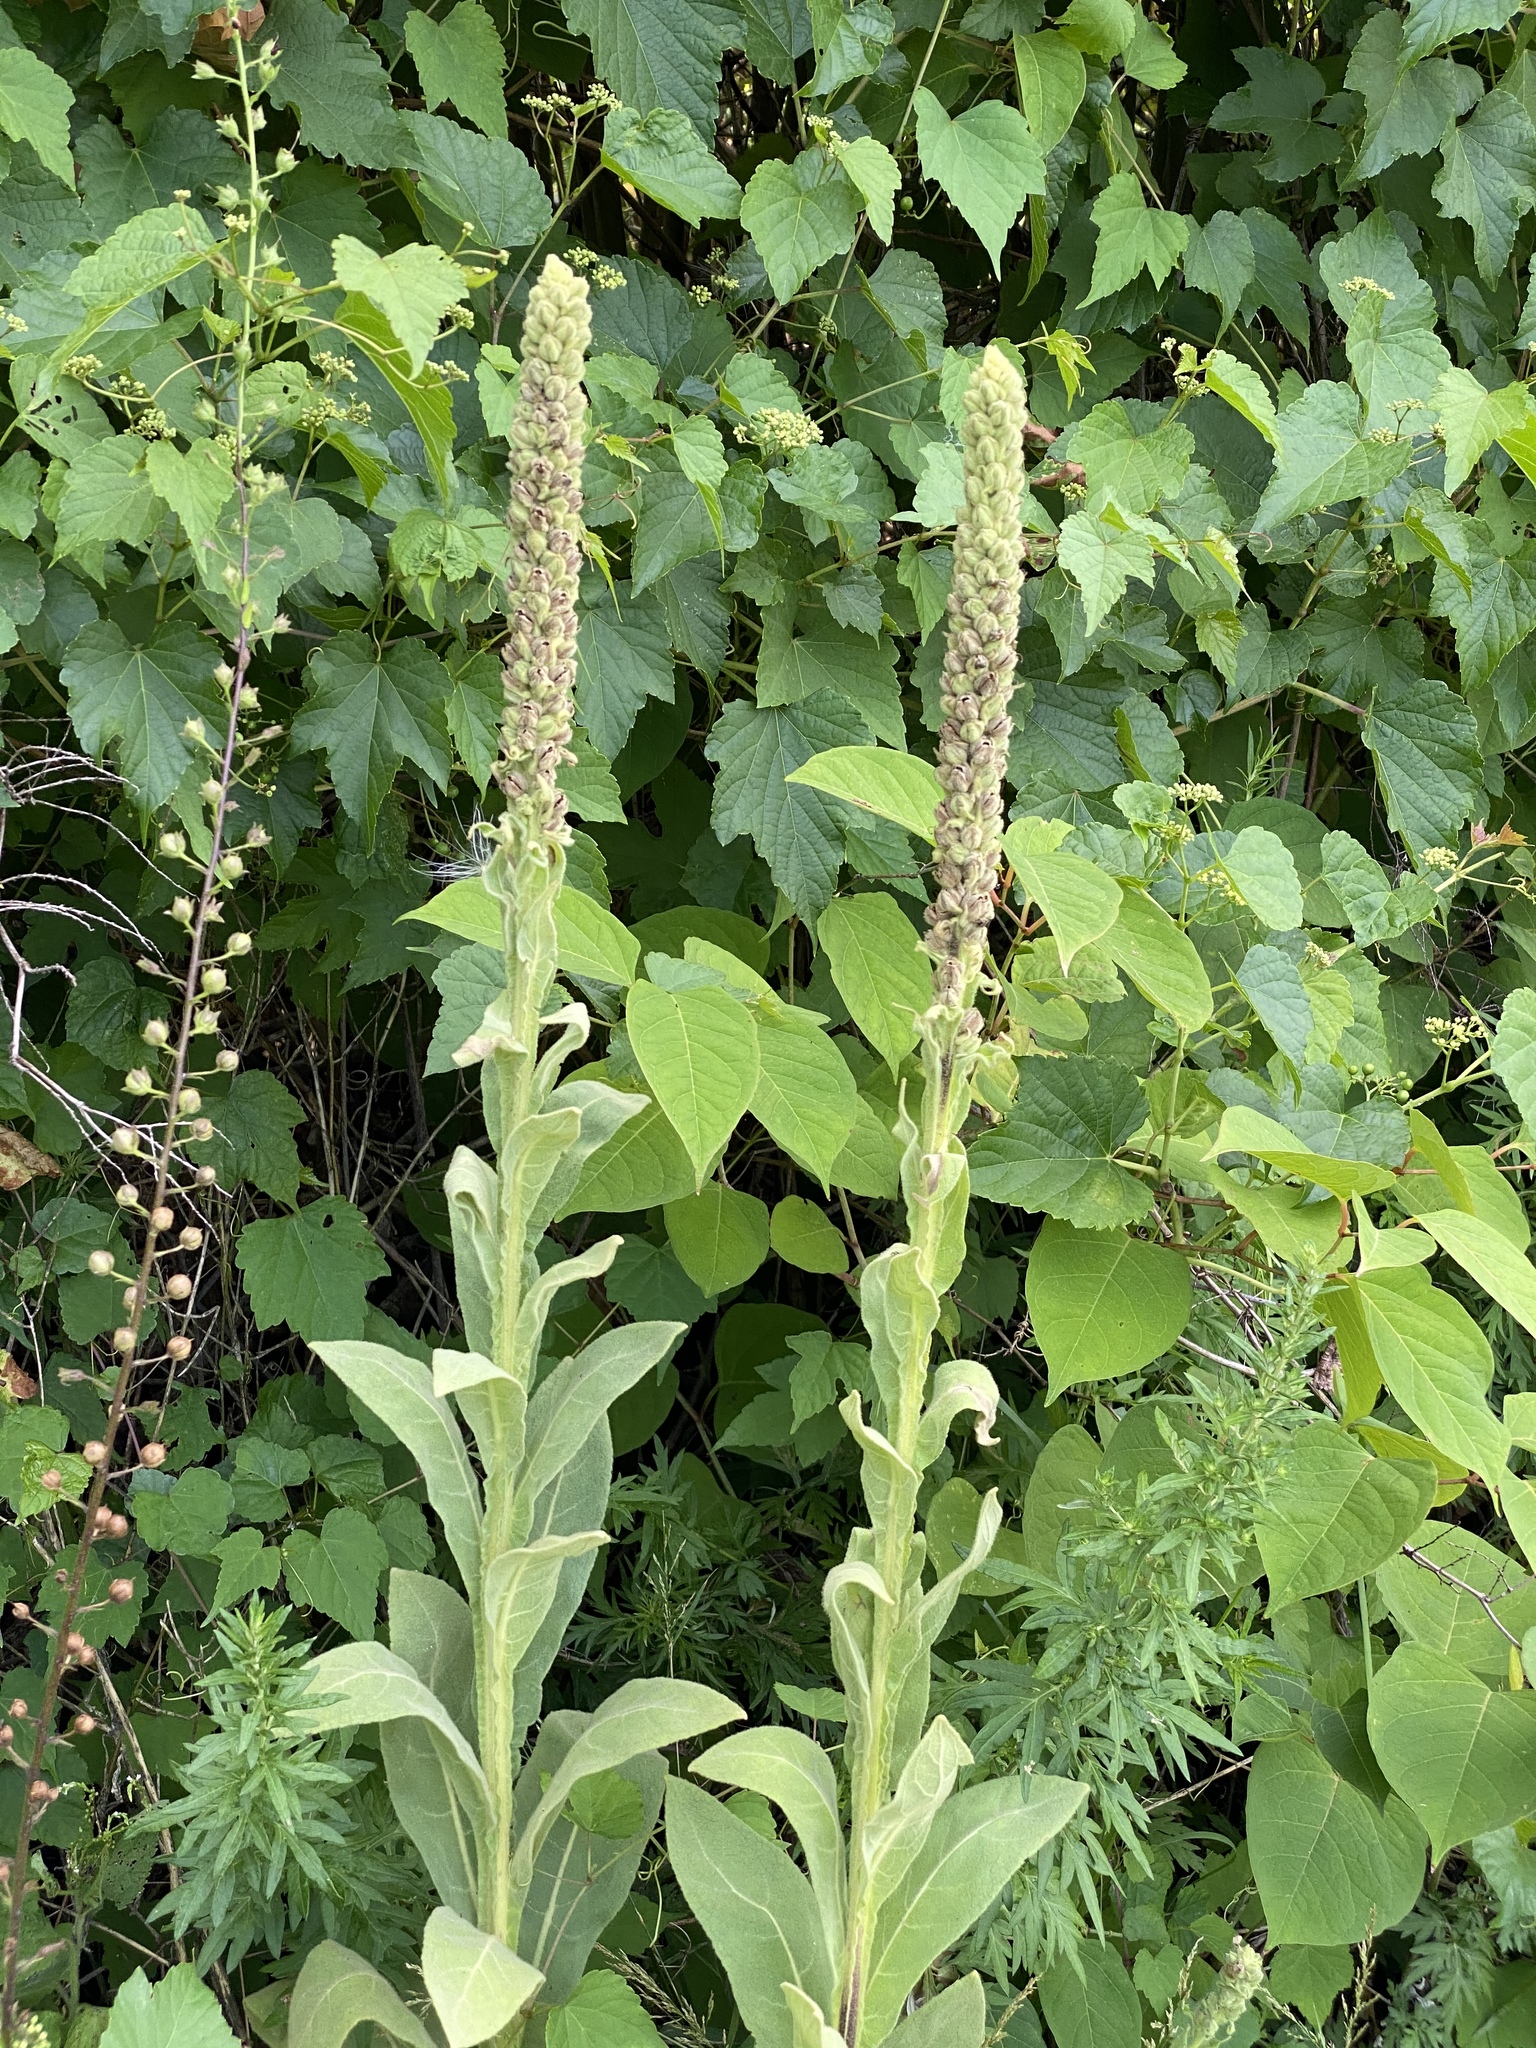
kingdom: Plantae
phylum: Tracheophyta
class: Magnoliopsida
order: Lamiales
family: Scrophulariaceae
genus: Verbascum
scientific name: Verbascum thapsus
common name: Common mullein
